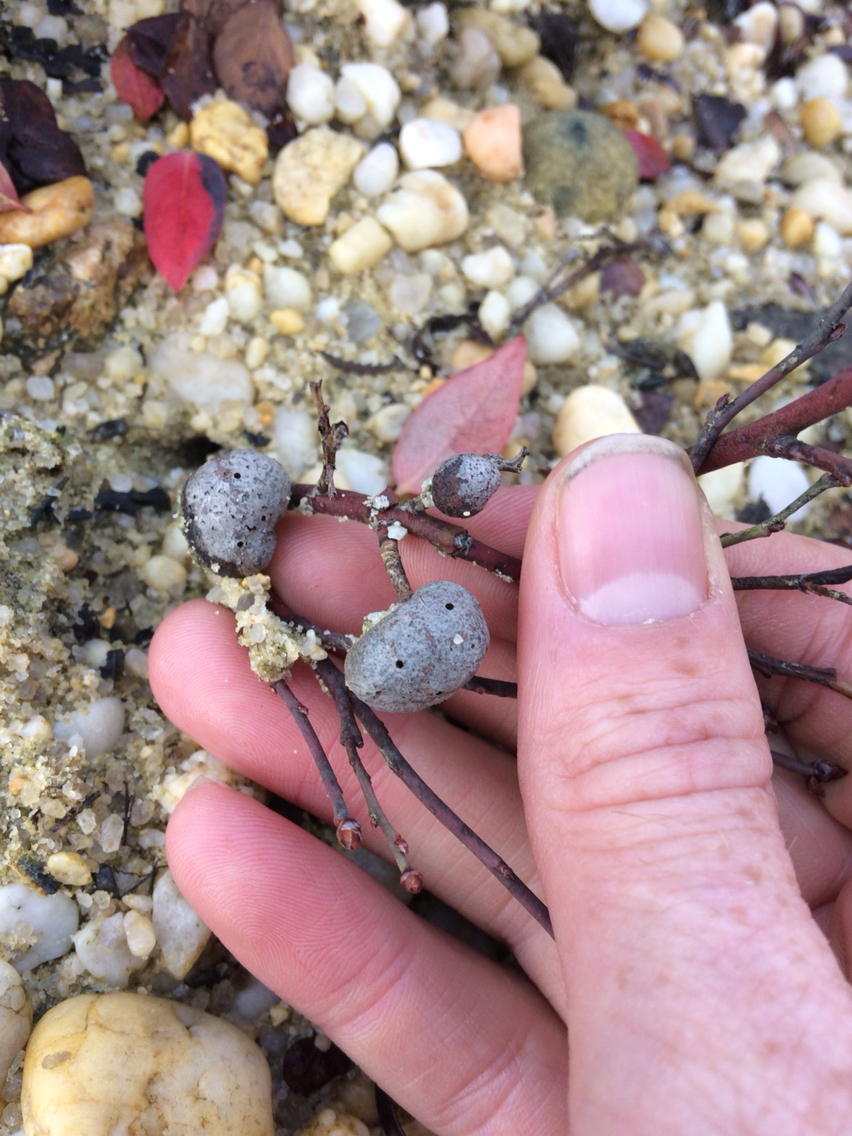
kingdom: Animalia
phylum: Arthropoda
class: Insecta
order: Hymenoptera
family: Pteromalidae
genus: Hemadas
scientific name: Hemadas nubilipennis
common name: Blueberry stem gall wasp
